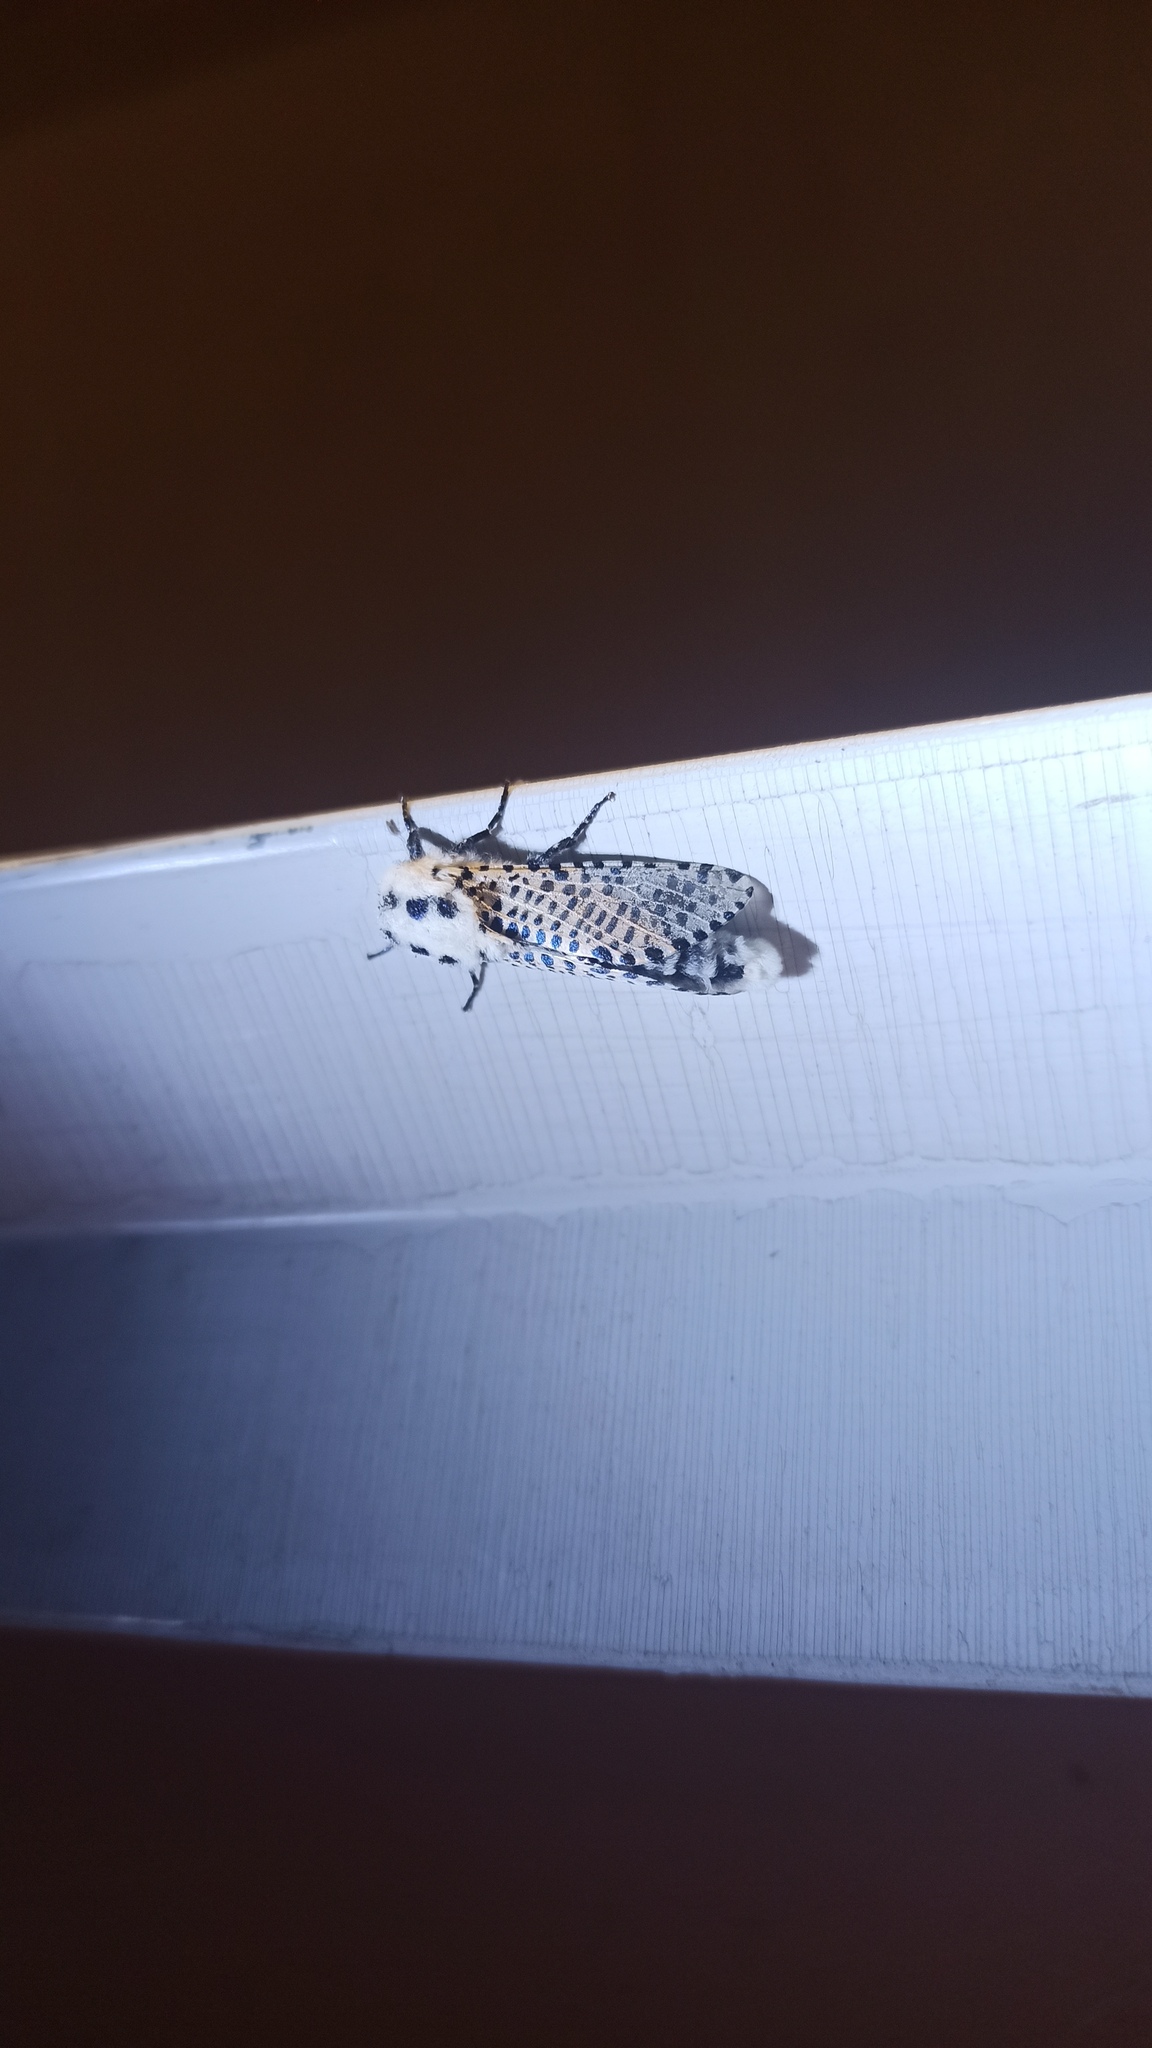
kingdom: Animalia
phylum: Arthropoda
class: Insecta
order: Lepidoptera
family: Cossidae
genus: Zeuzera
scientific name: Zeuzera pyrina
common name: Leopard moth
